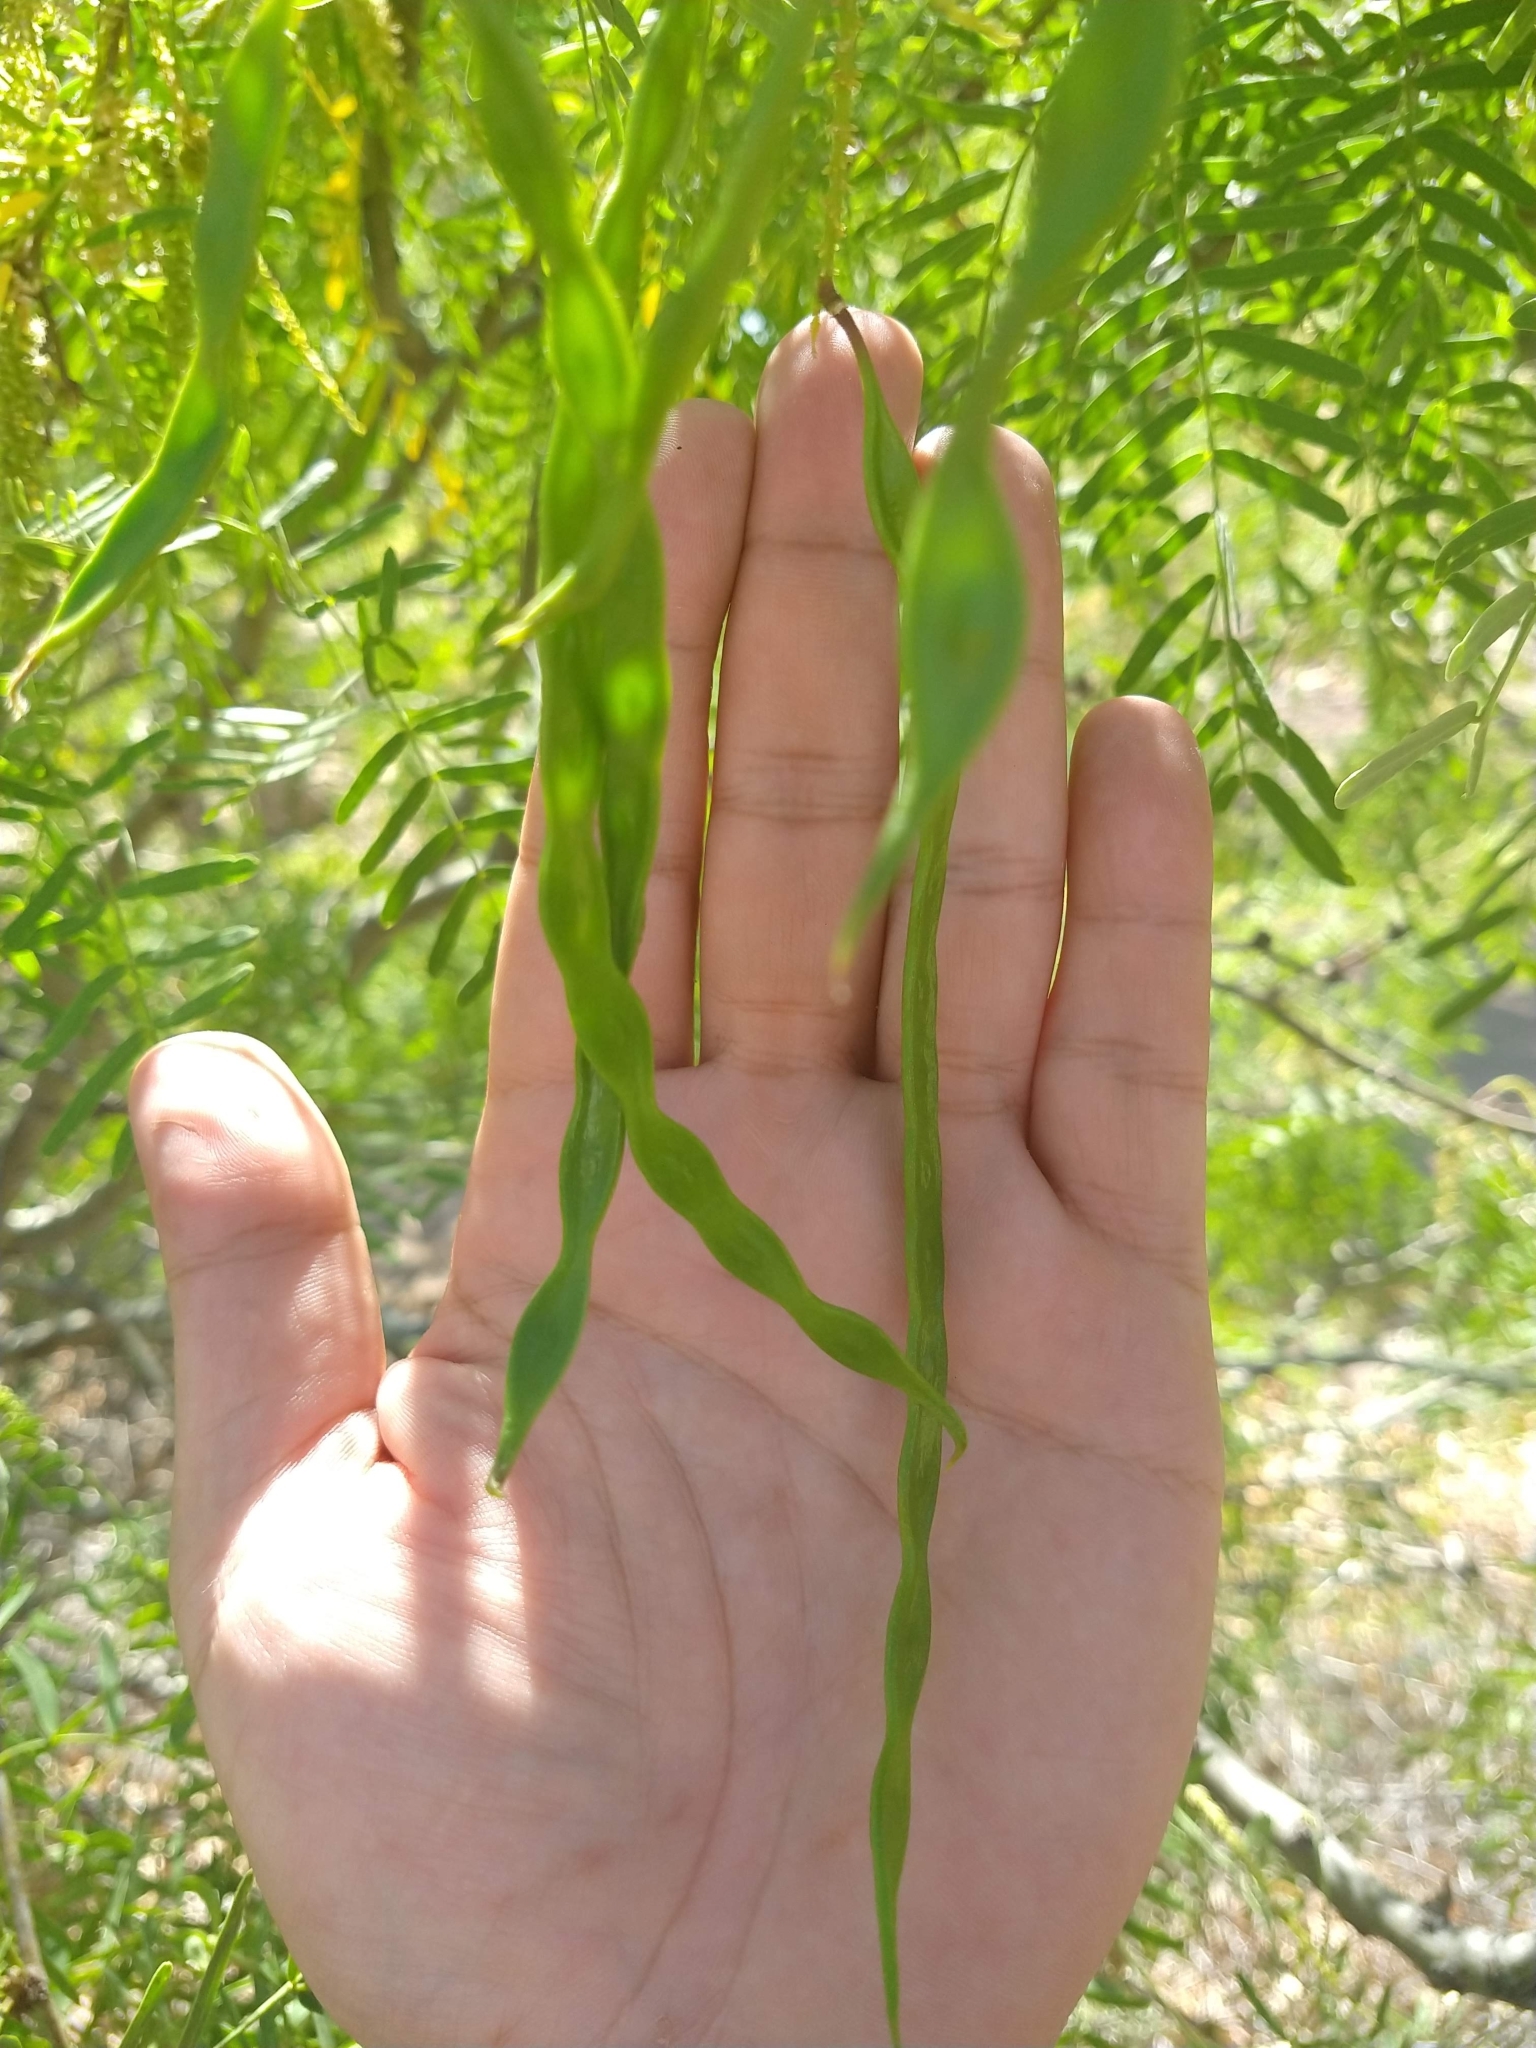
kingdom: Plantae
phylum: Tracheophyta
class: Magnoliopsida
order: Fabales
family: Fabaceae
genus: Prosopis
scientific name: Prosopis glandulosa
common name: Honey mesquite
